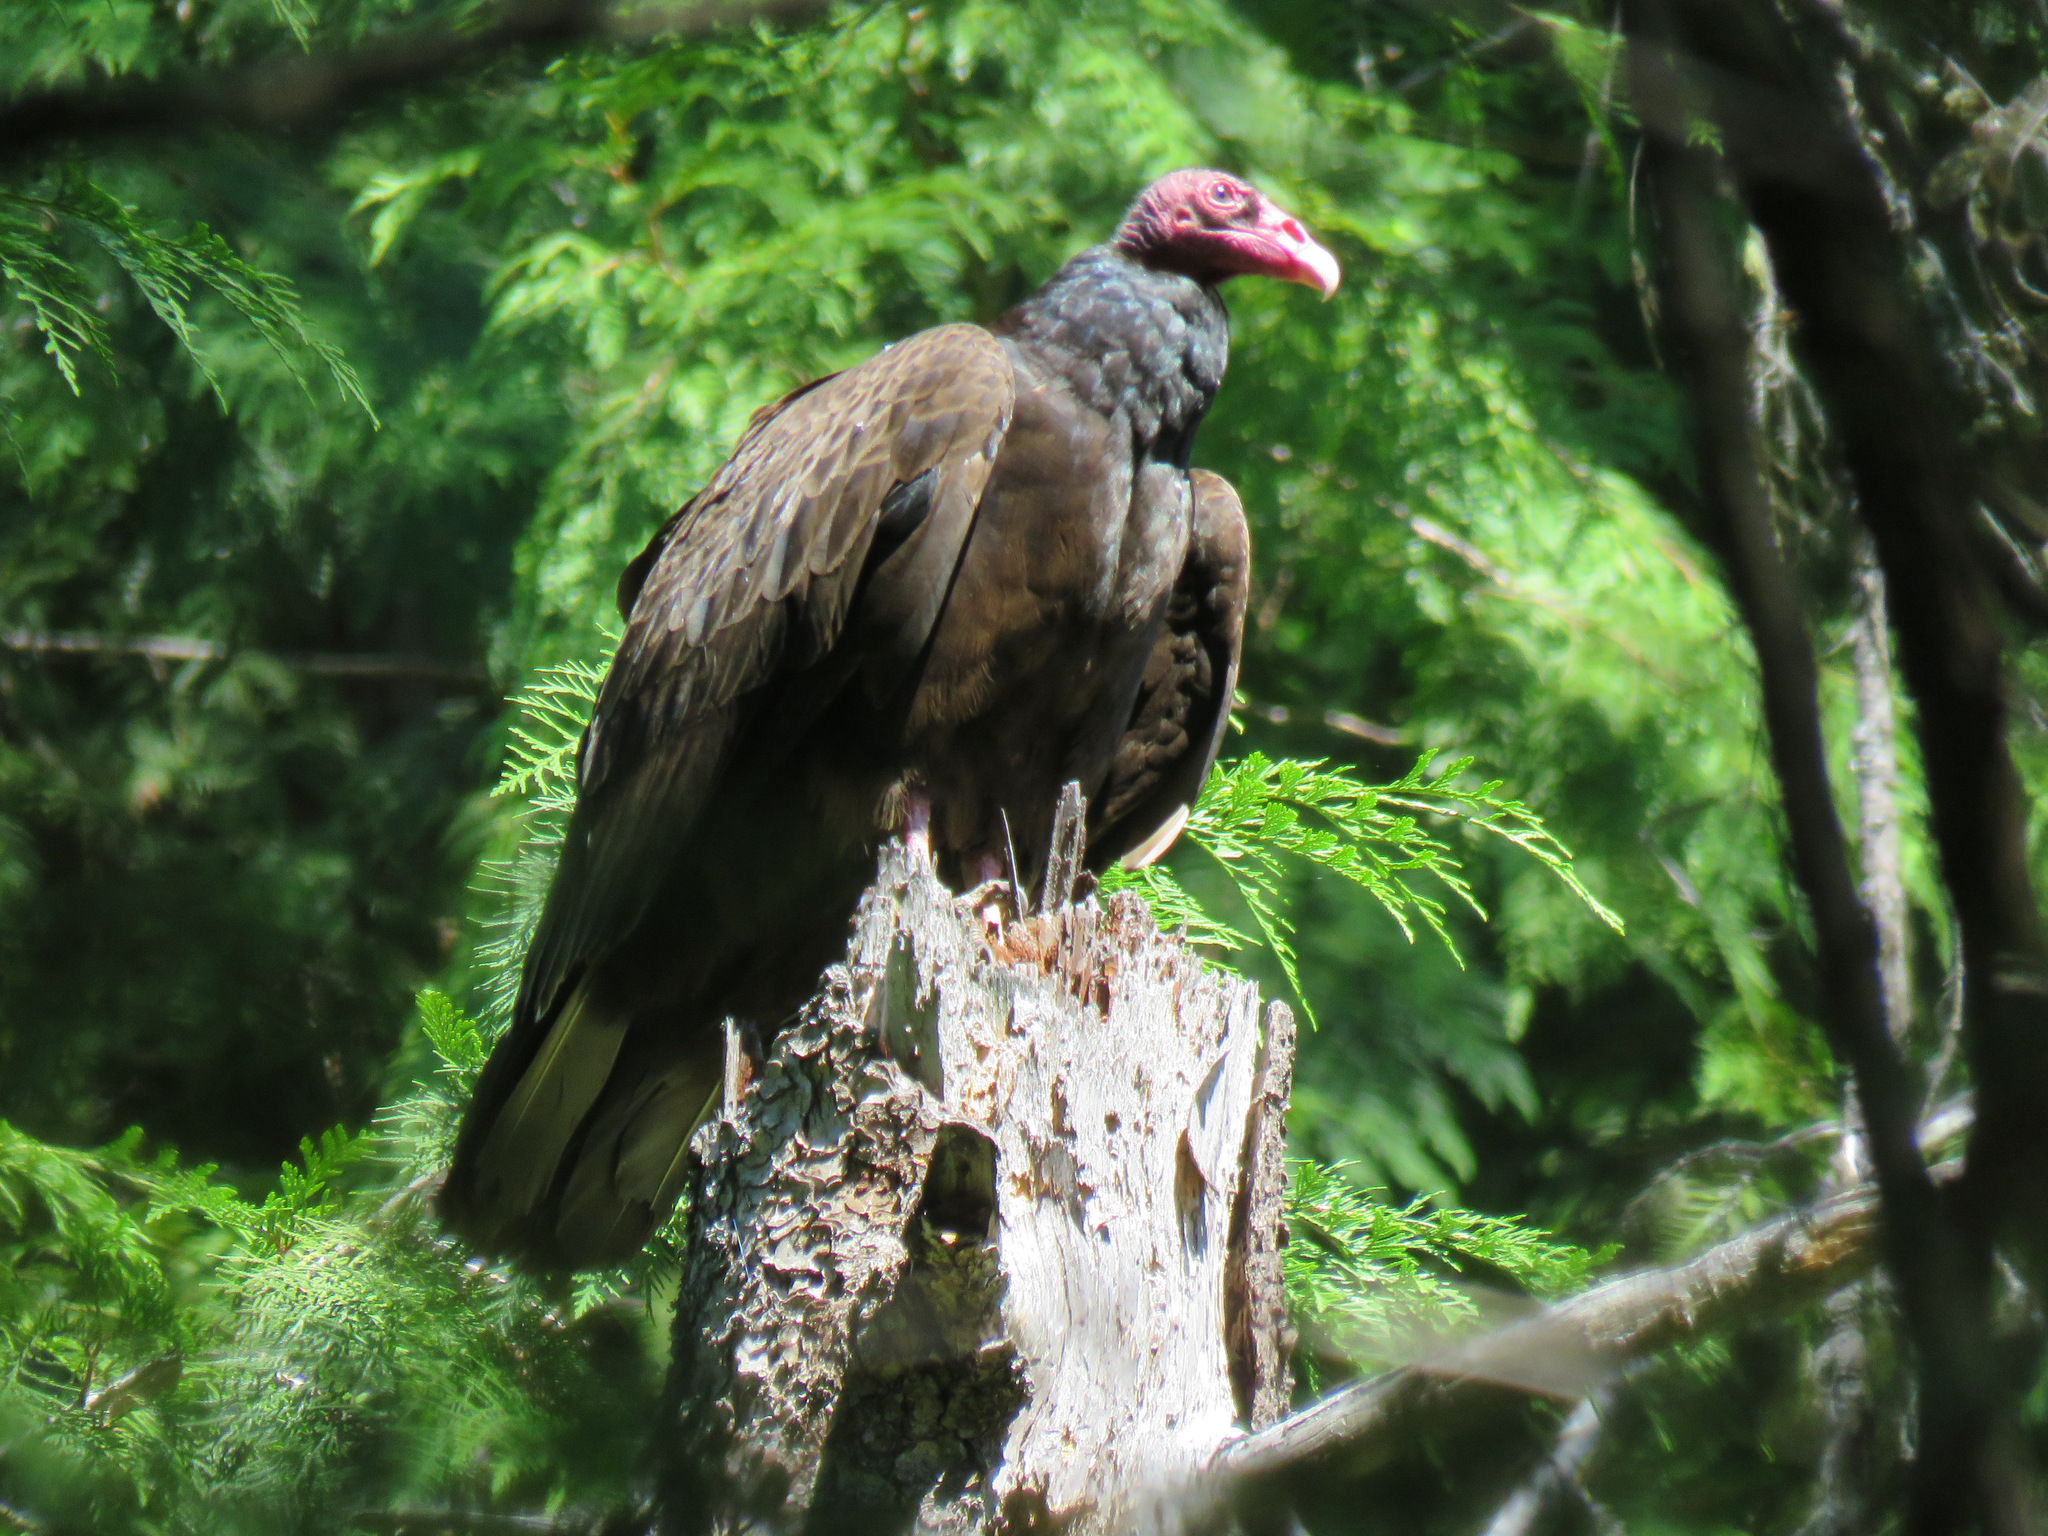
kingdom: Animalia
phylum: Chordata
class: Aves
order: Accipitriformes
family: Cathartidae
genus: Cathartes
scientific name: Cathartes aura
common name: Turkey vulture
